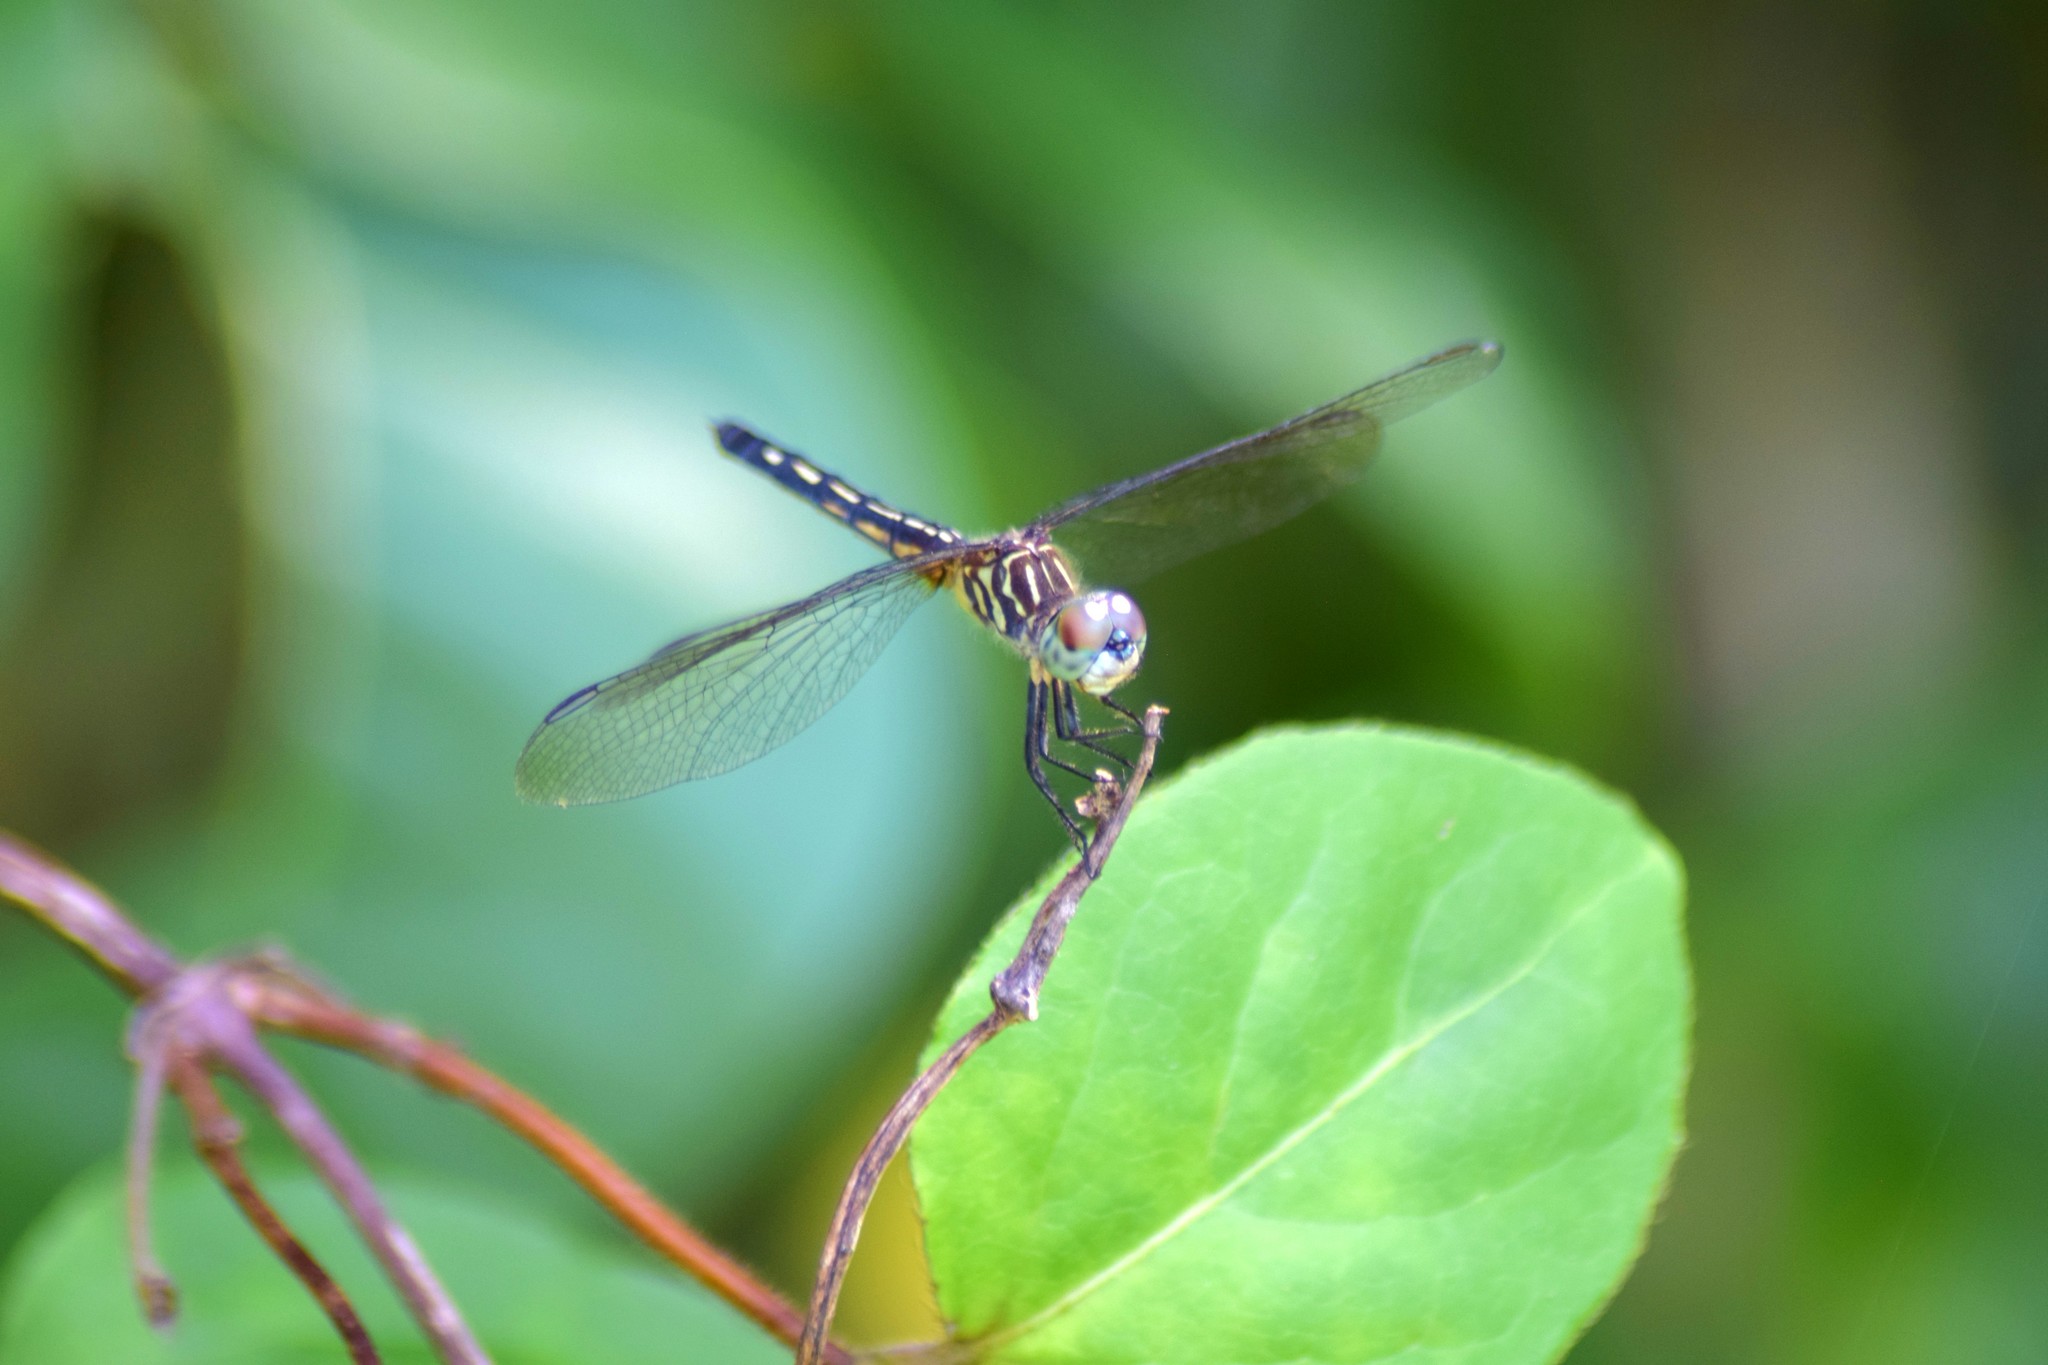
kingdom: Animalia
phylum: Arthropoda
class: Insecta
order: Odonata
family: Libellulidae
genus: Pachydiplax
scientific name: Pachydiplax longipennis
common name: Blue dasher
